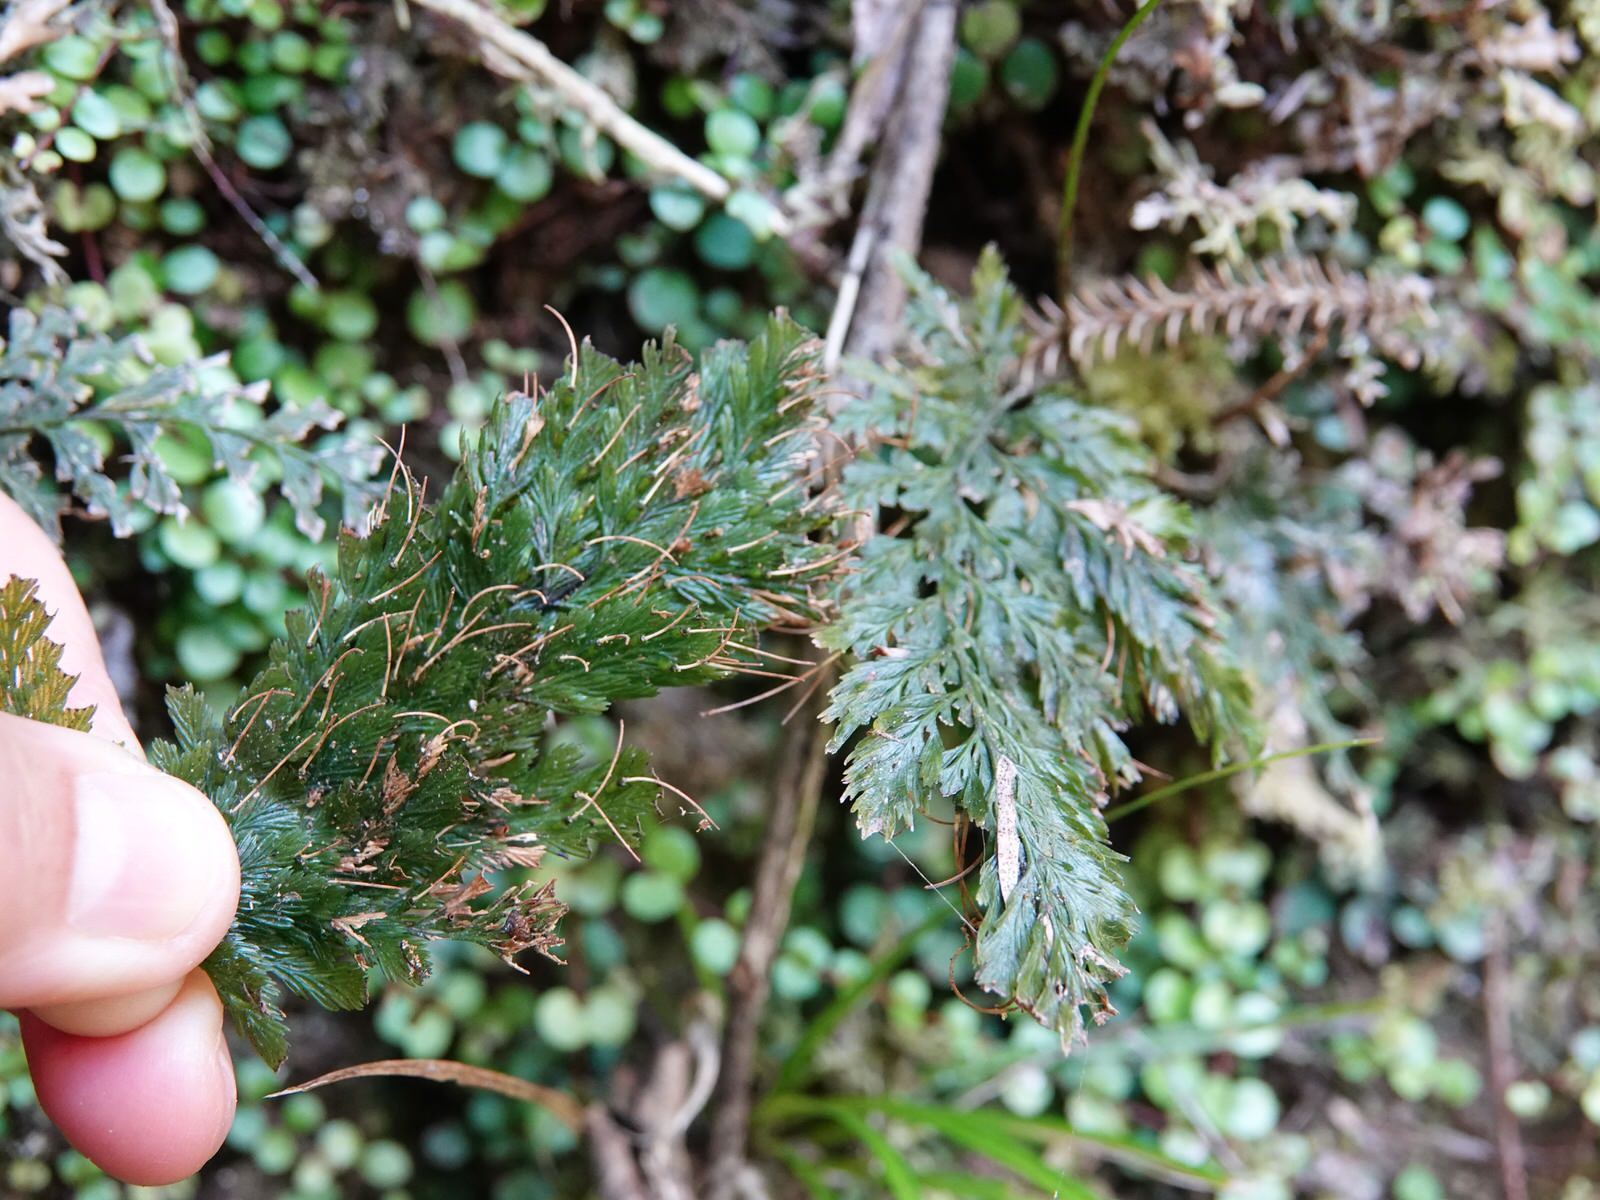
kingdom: Plantae
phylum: Tracheophyta
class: Polypodiopsida
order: Hymenophyllales
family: Hymenophyllaceae
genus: Abrodictyum
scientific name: Abrodictyum elongatum
